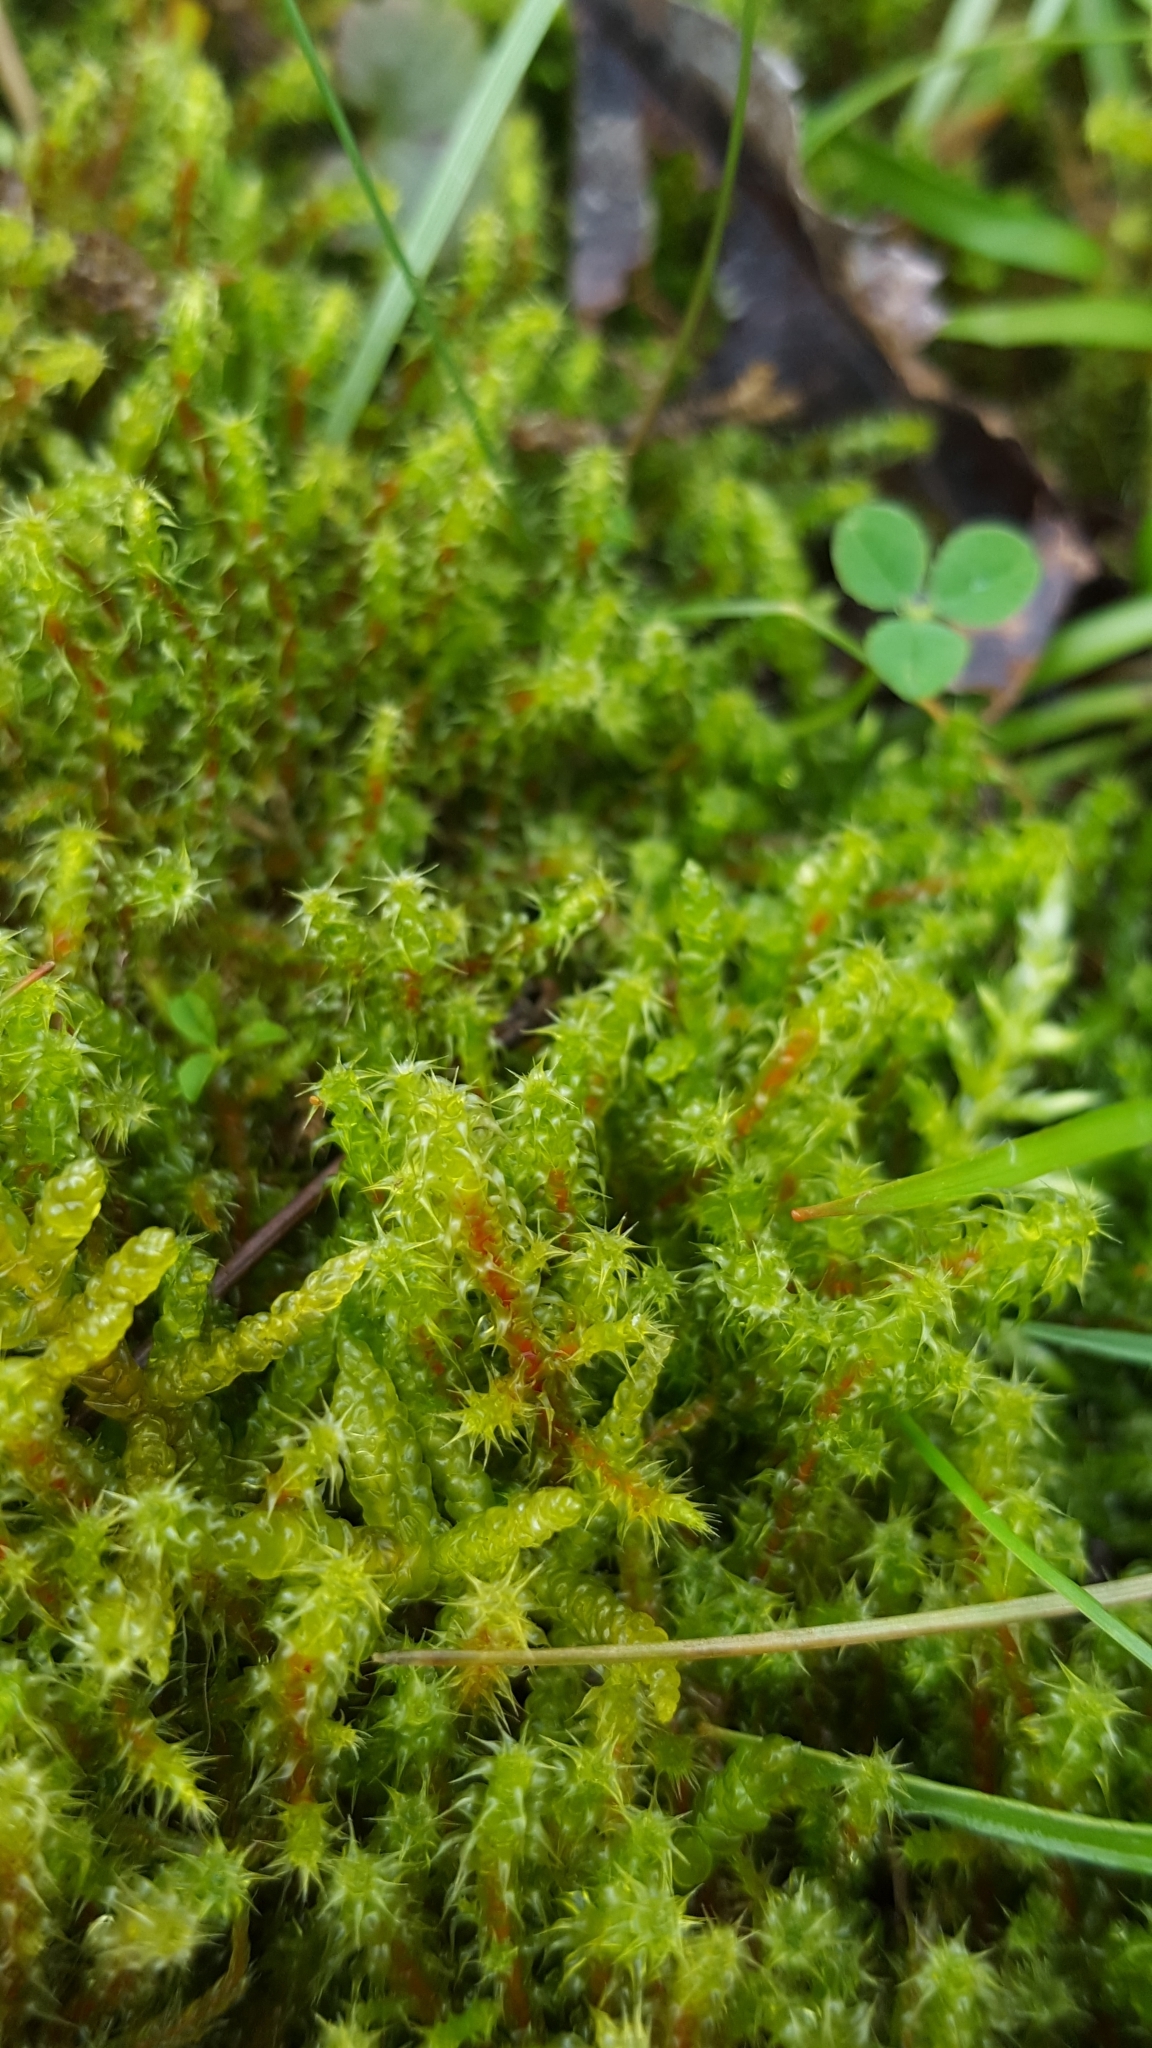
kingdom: Plantae
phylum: Bryophyta
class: Bryopsida
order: Hypnales
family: Hylocomiaceae
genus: Rhytidiadelphus
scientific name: Rhytidiadelphus squarrosus
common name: Springy turf-moss
